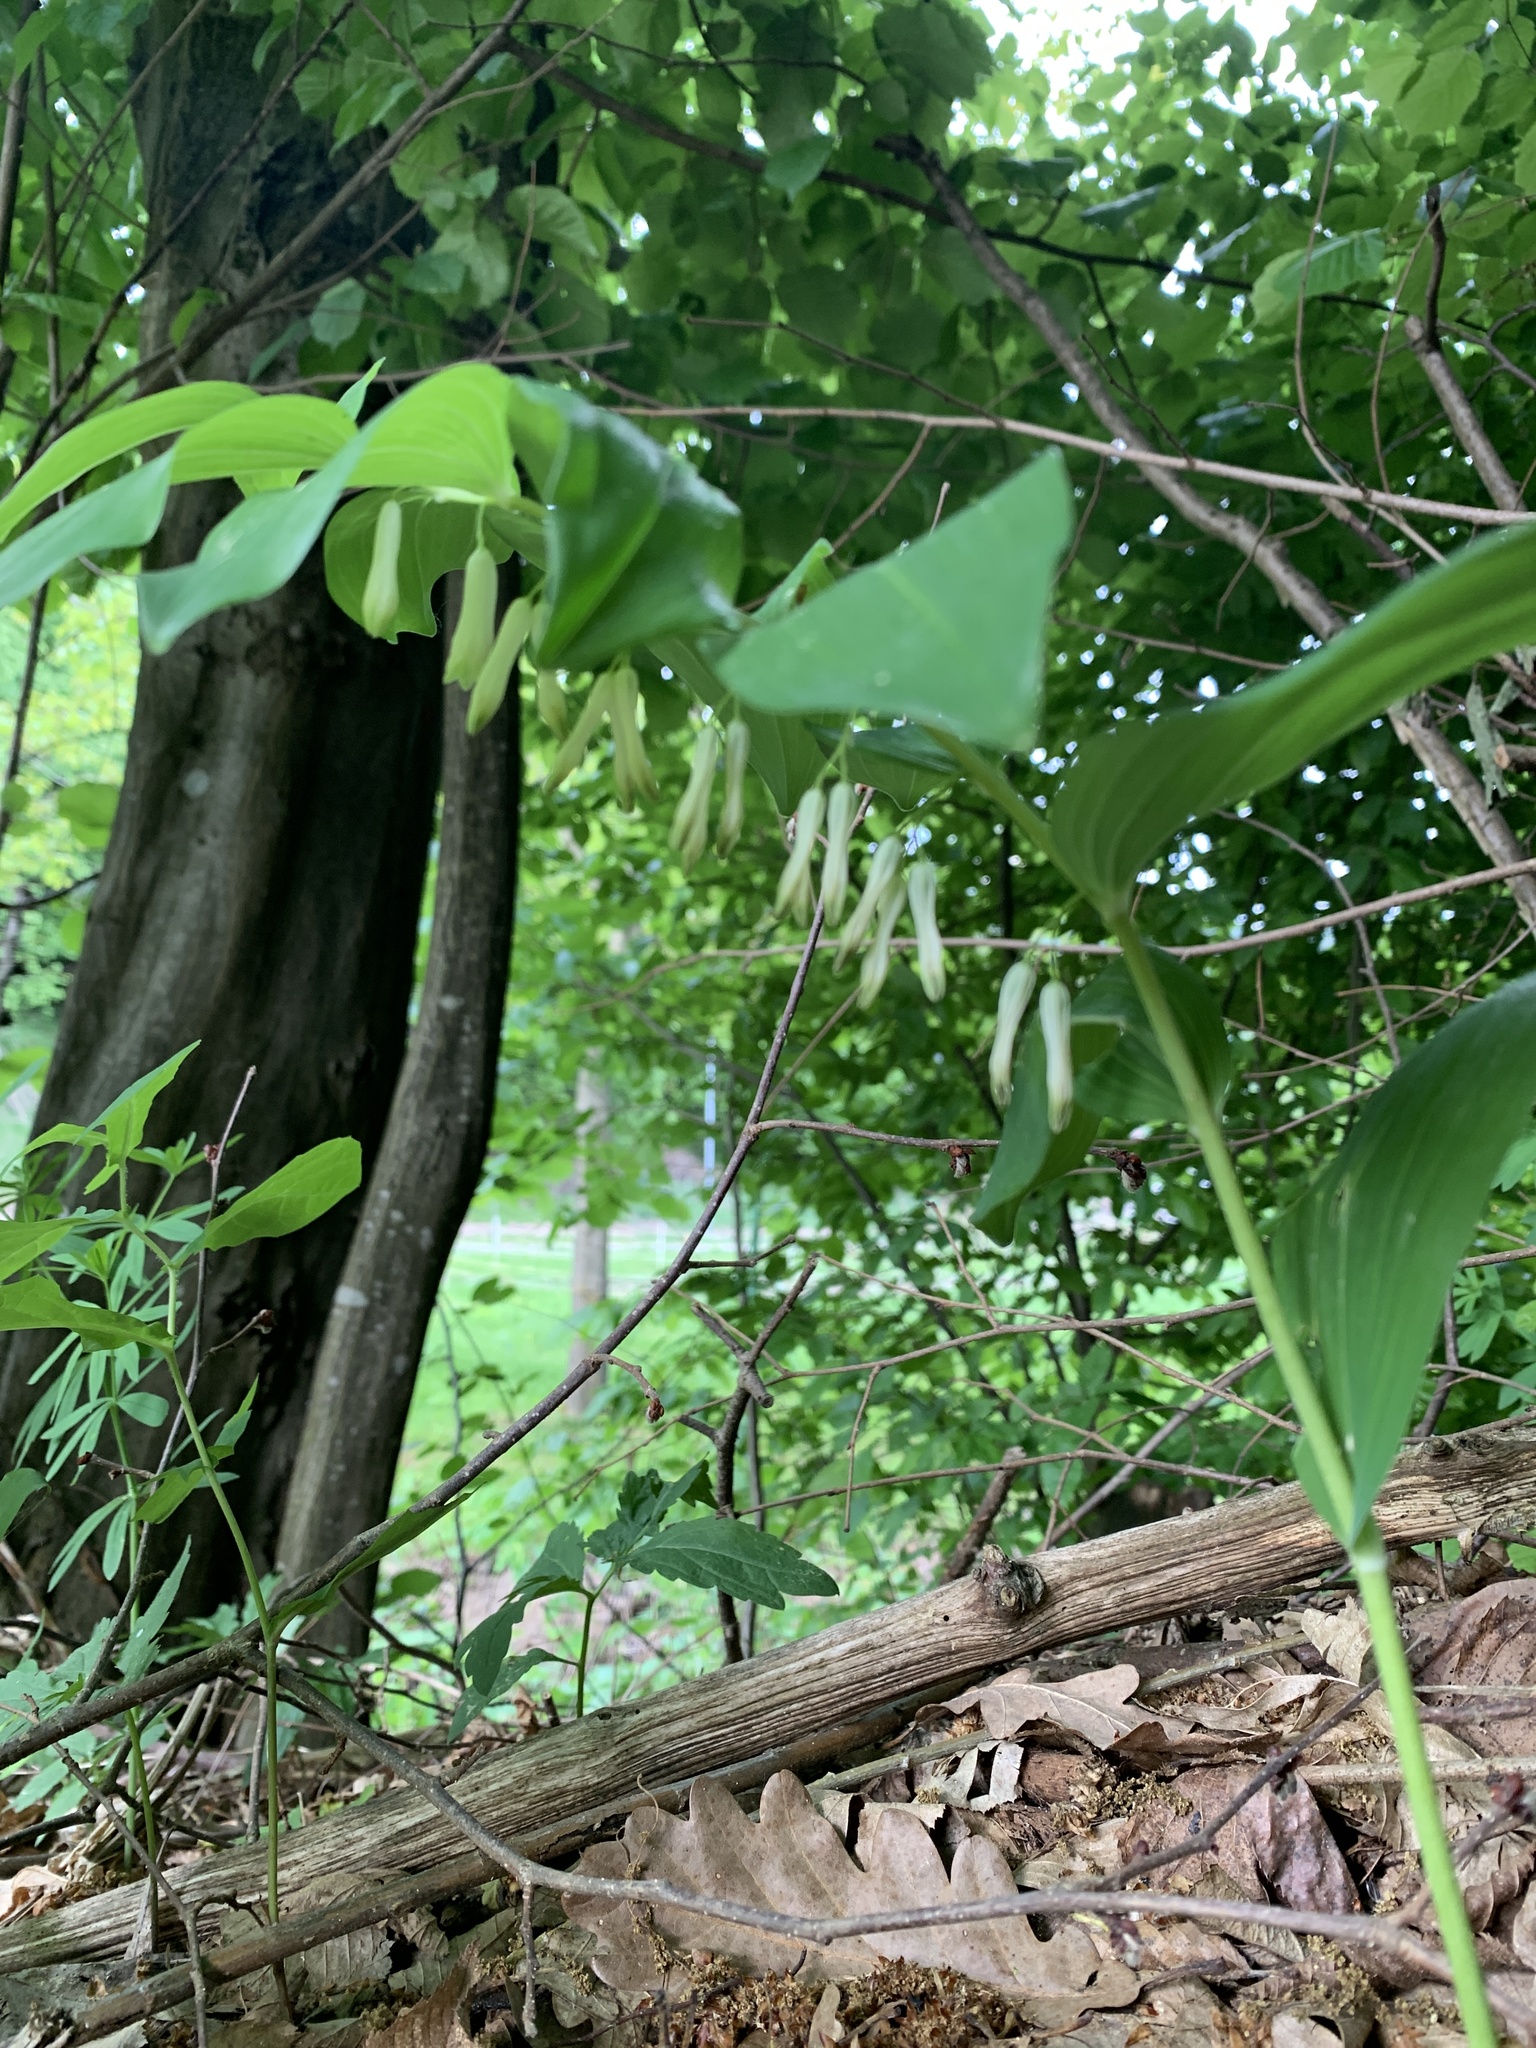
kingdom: Plantae
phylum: Tracheophyta
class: Liliopsida
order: Asparagales
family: Asparagaceae
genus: Polygonatum
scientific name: Polygonatum multiflorum
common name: Solomon's-seal
